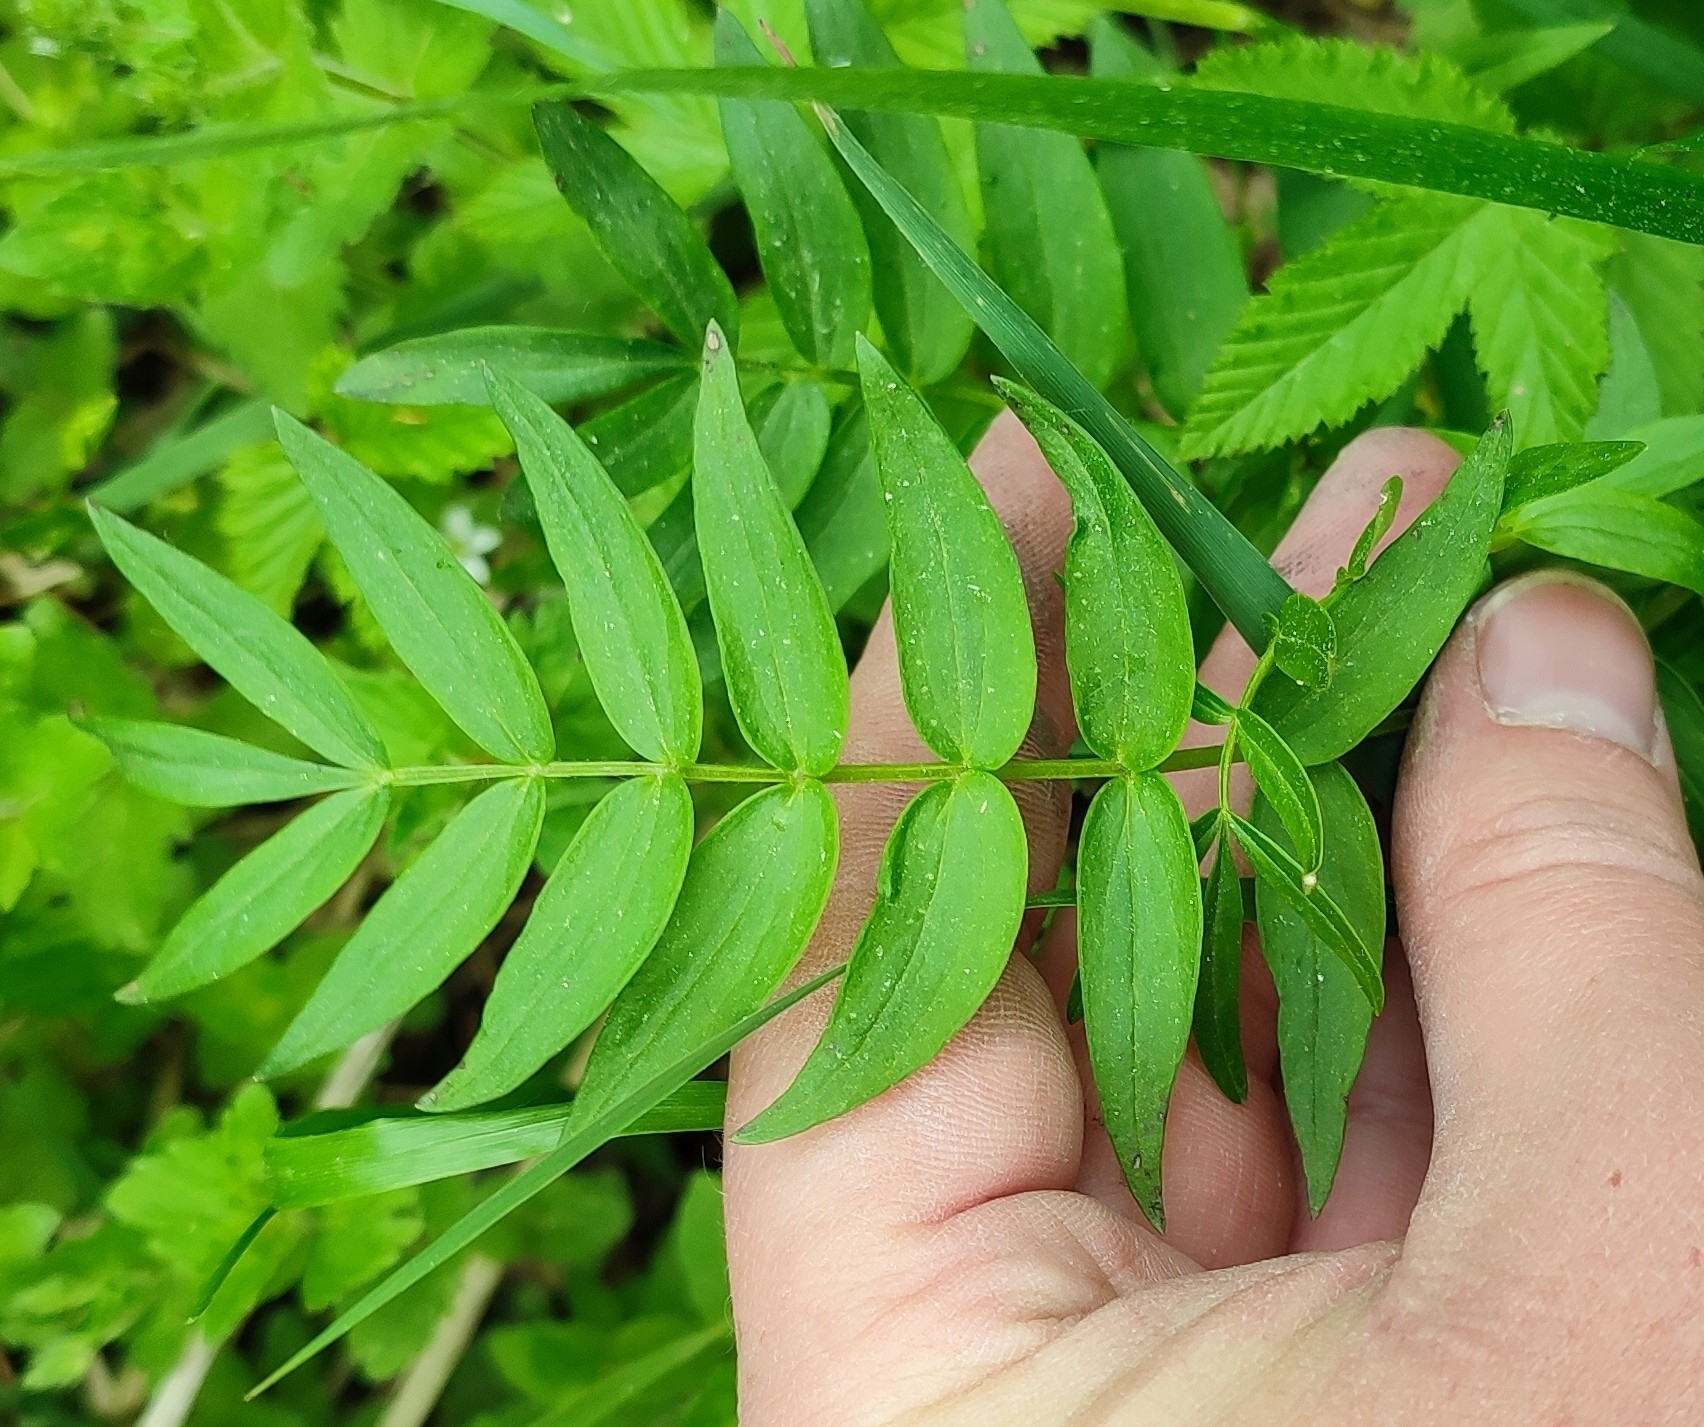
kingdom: Plantae
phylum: Tracheophyta
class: Magnoliopsida
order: Ericales
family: Polemoniaceae
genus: Polemonium
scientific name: Polemonium caeruleum
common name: Jacob's-ladder
